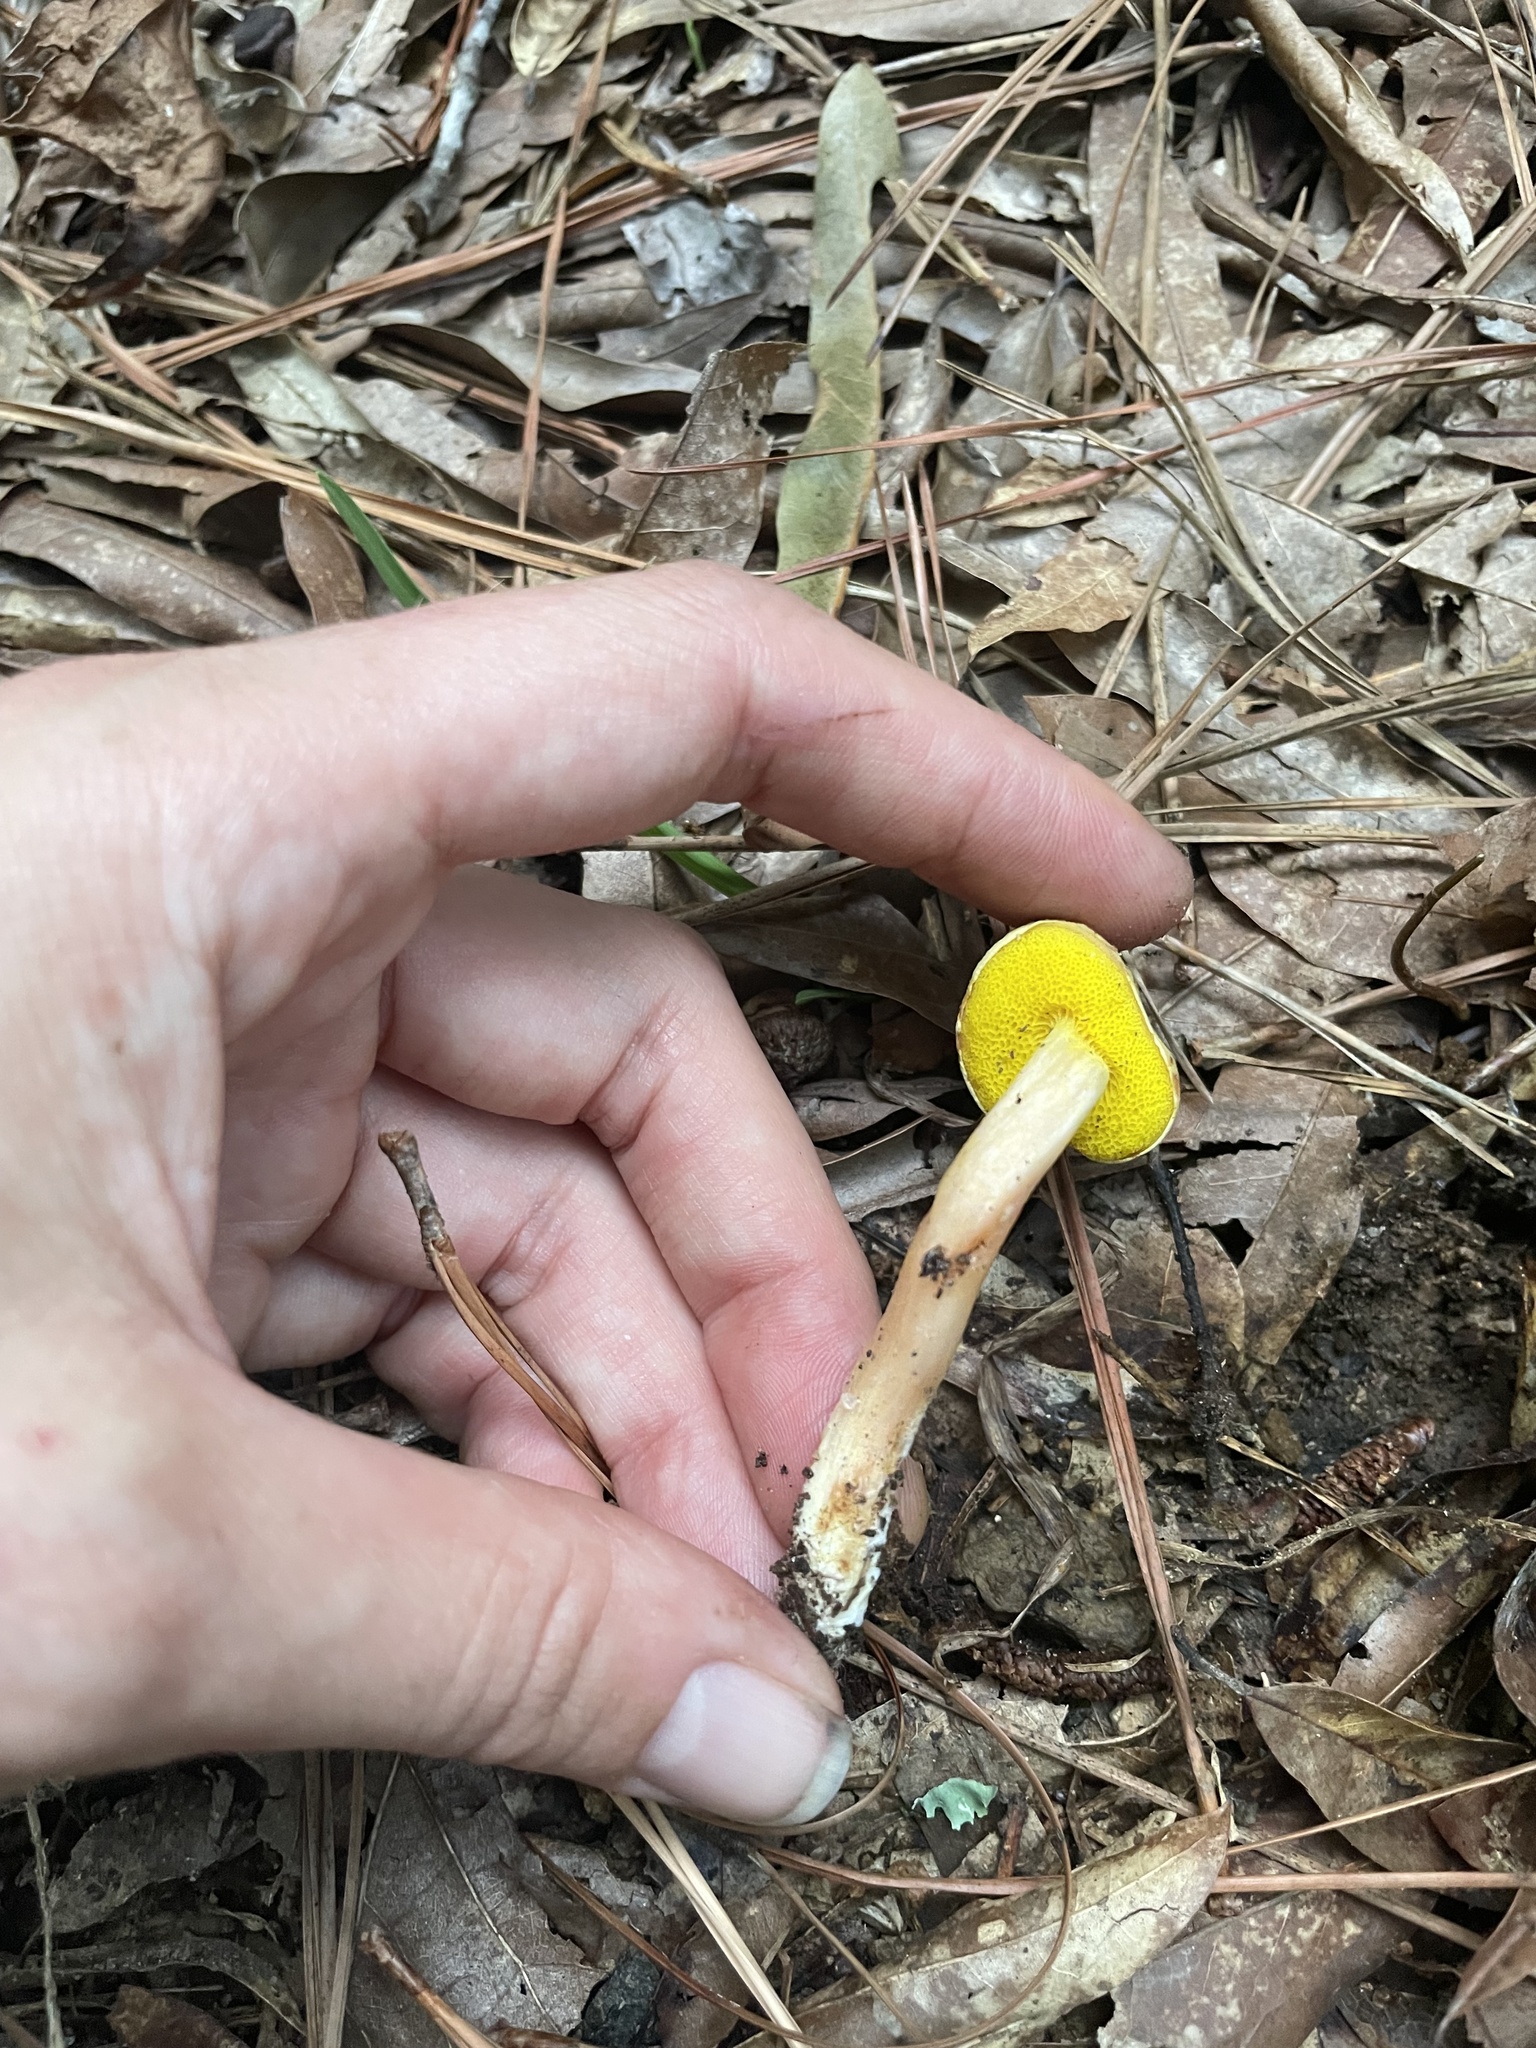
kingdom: Fungi
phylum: Basidiomycota
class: Agaricomycetes
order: Boletales
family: Boletaceae
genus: Aureoboletus
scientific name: Aureoboletus auriporus
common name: Sour gold-pored bolete
